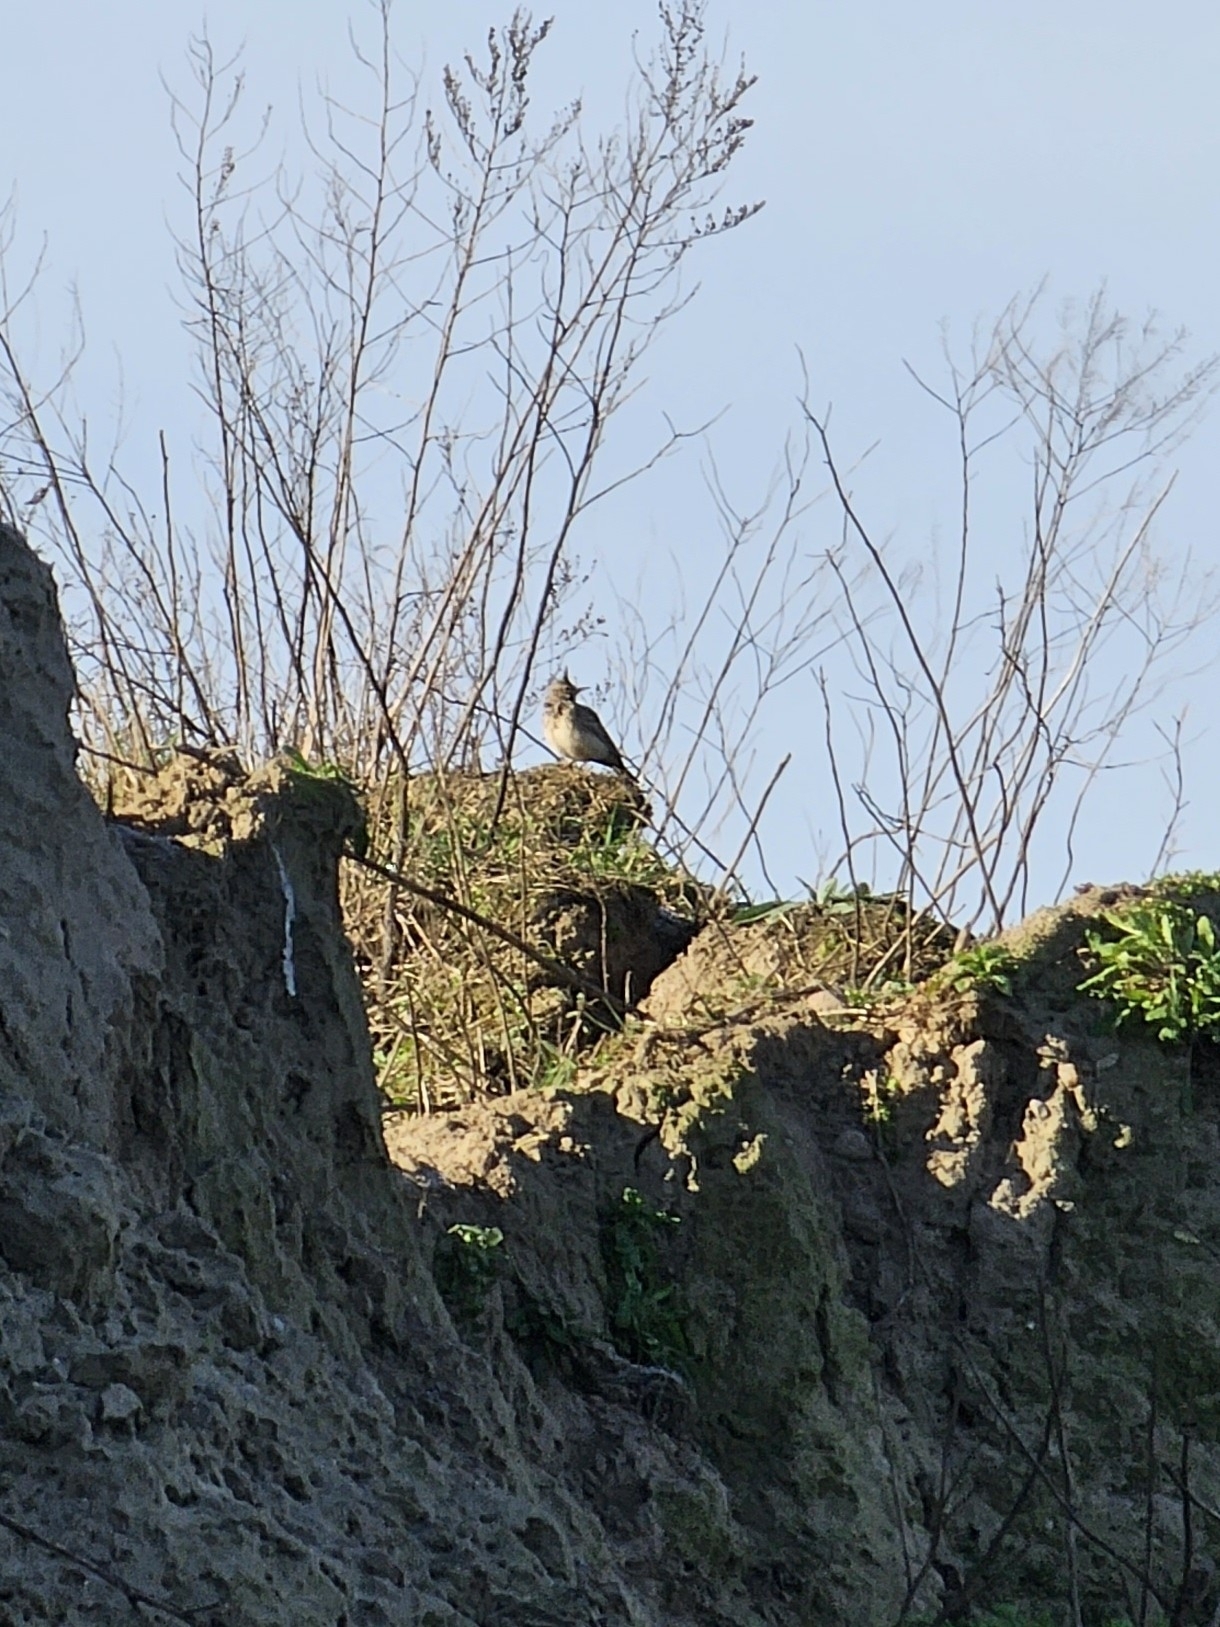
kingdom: Animalia
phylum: Chordata
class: Aves
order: Passeriformes
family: Alaudidae
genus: Galerida
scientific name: Galerida cristata
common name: Crested lark
